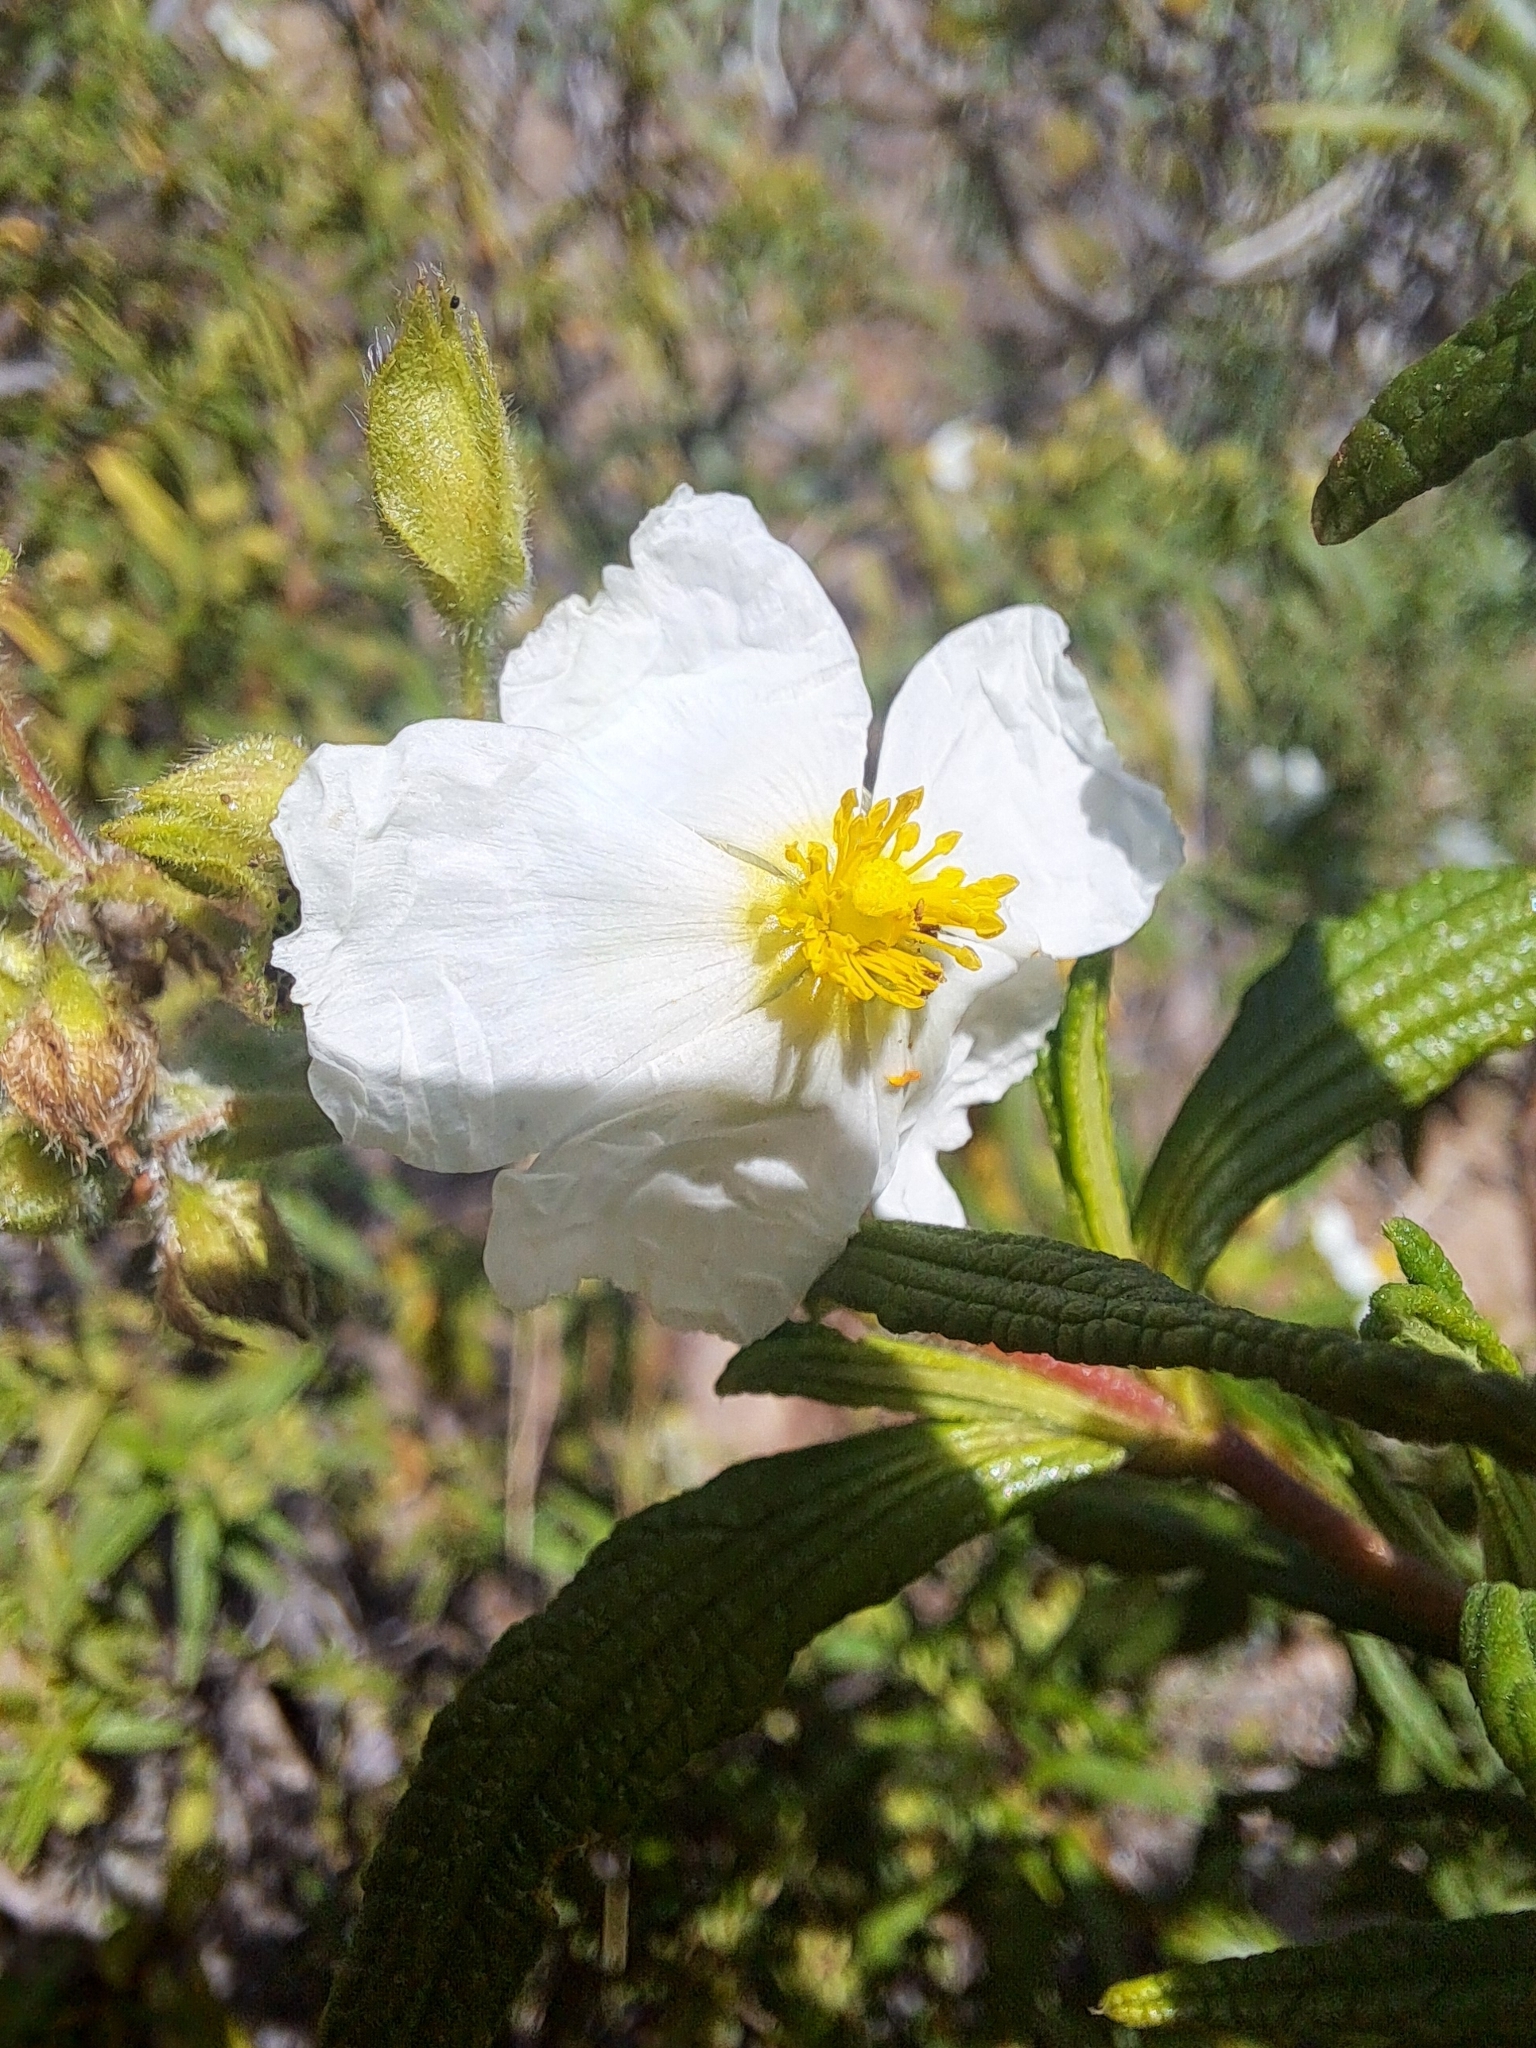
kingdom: Plantae
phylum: Tracheophyta
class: Magnoliopsida
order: Malvales
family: Cistaceae
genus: Cistus
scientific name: Cistus monspeliensis
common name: Montpelier cistus
